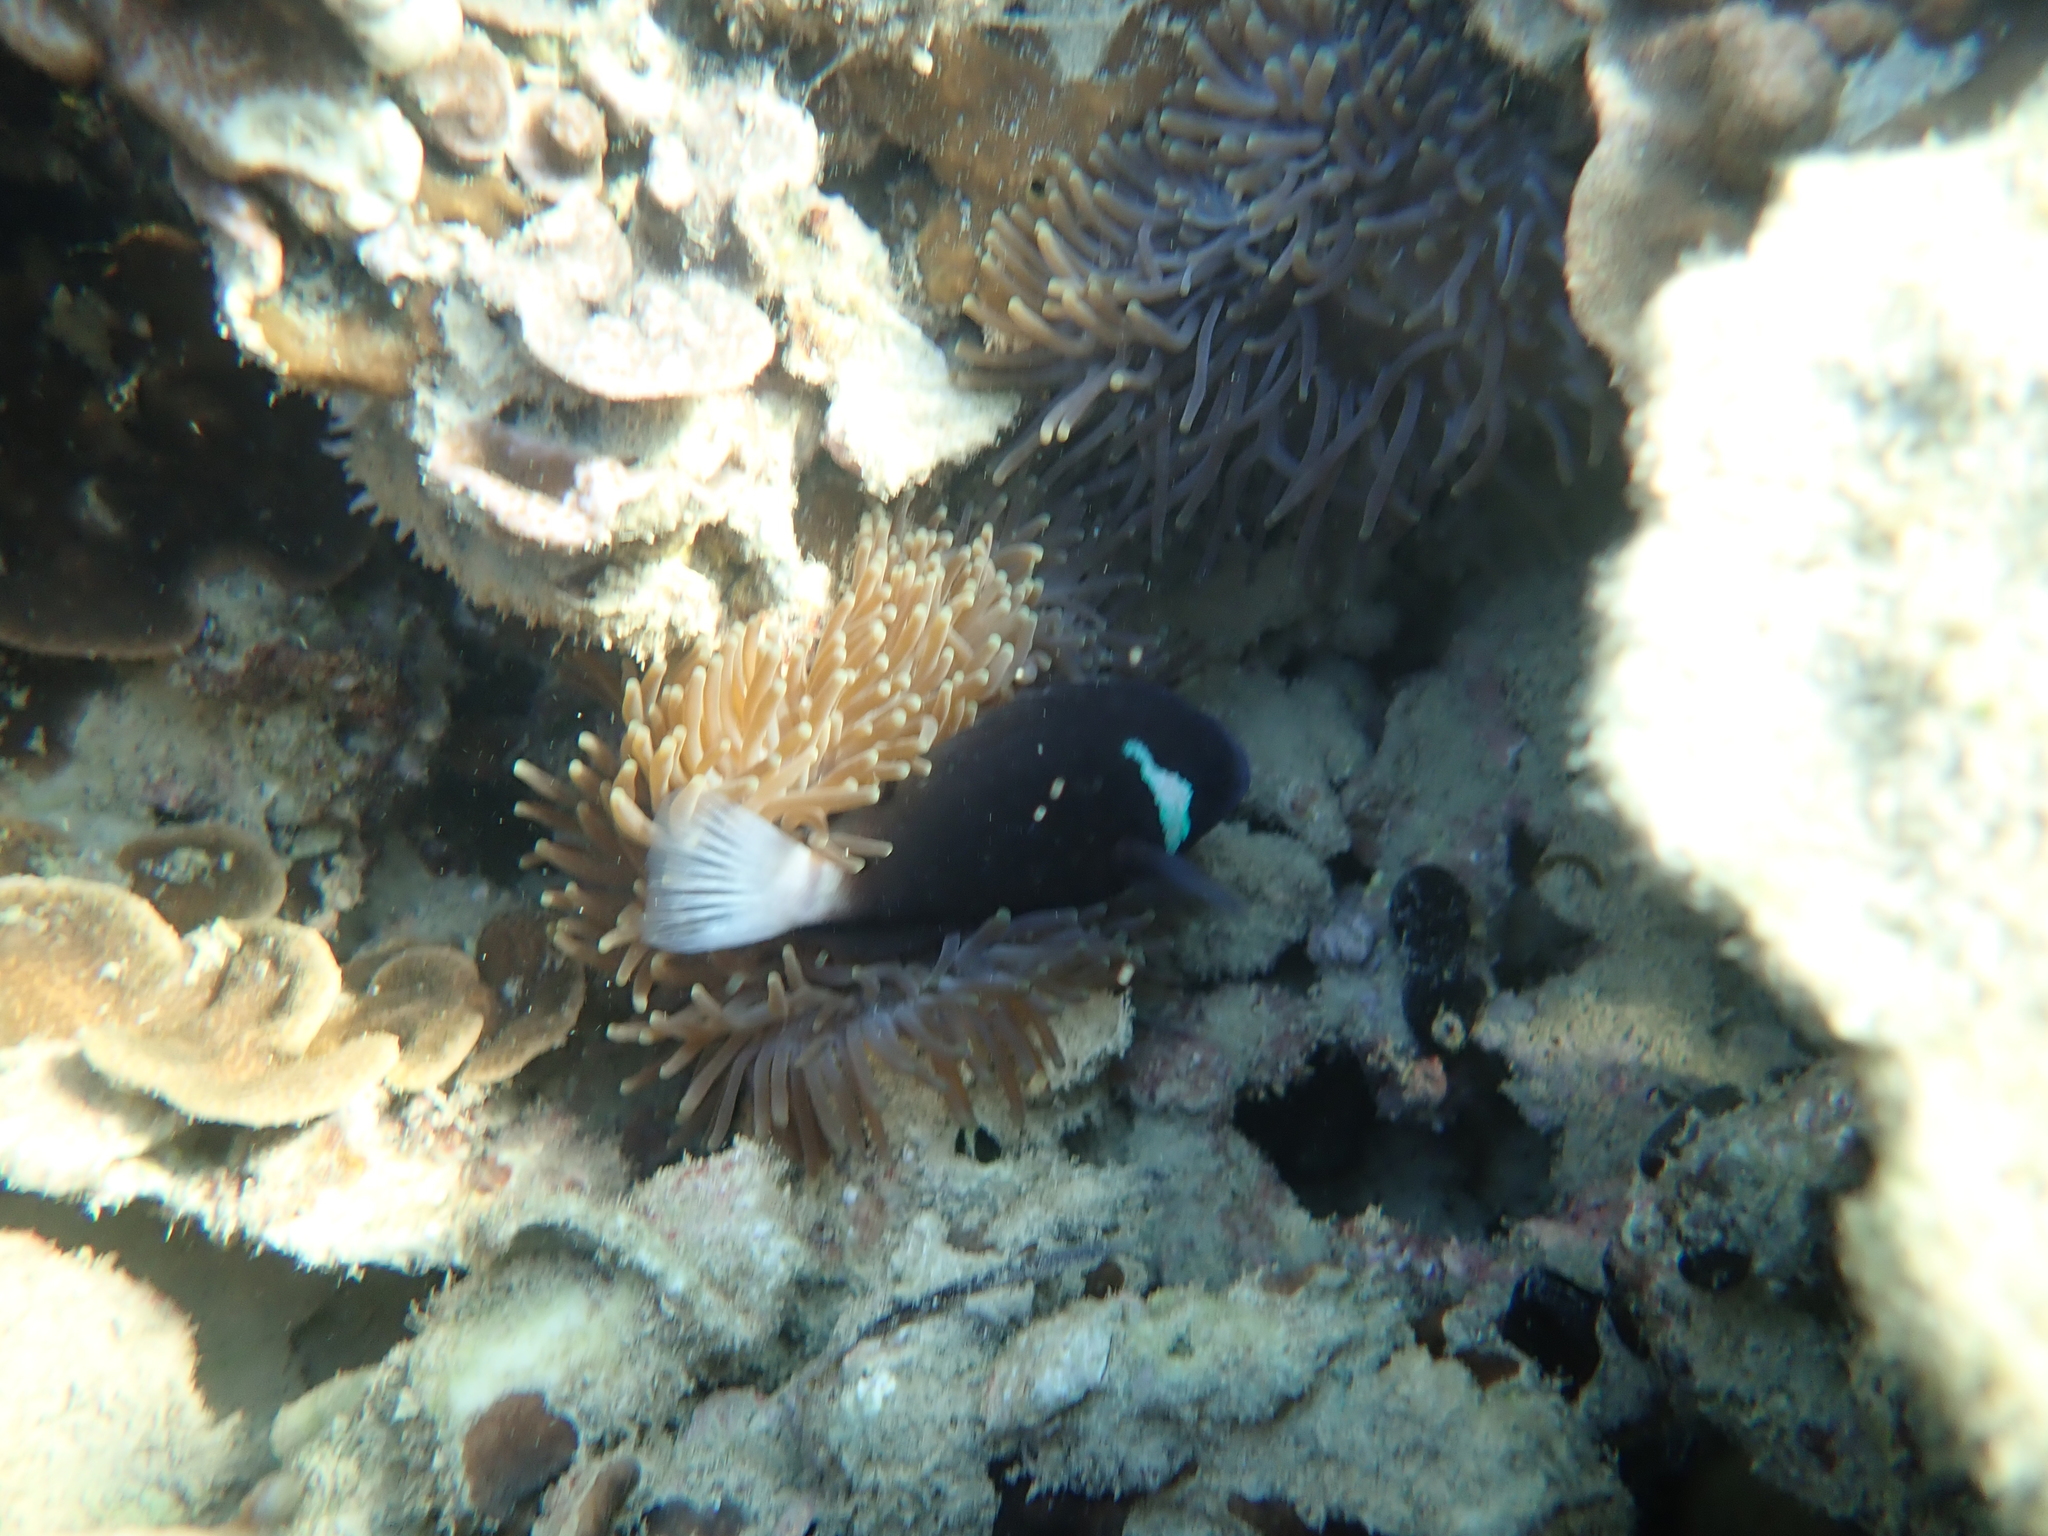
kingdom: Animalia
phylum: Chordata
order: Perciformes
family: Pomacentridae
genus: Amphiprion
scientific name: Amphiprion mccullochi
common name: Mcculloch's anemonefish
